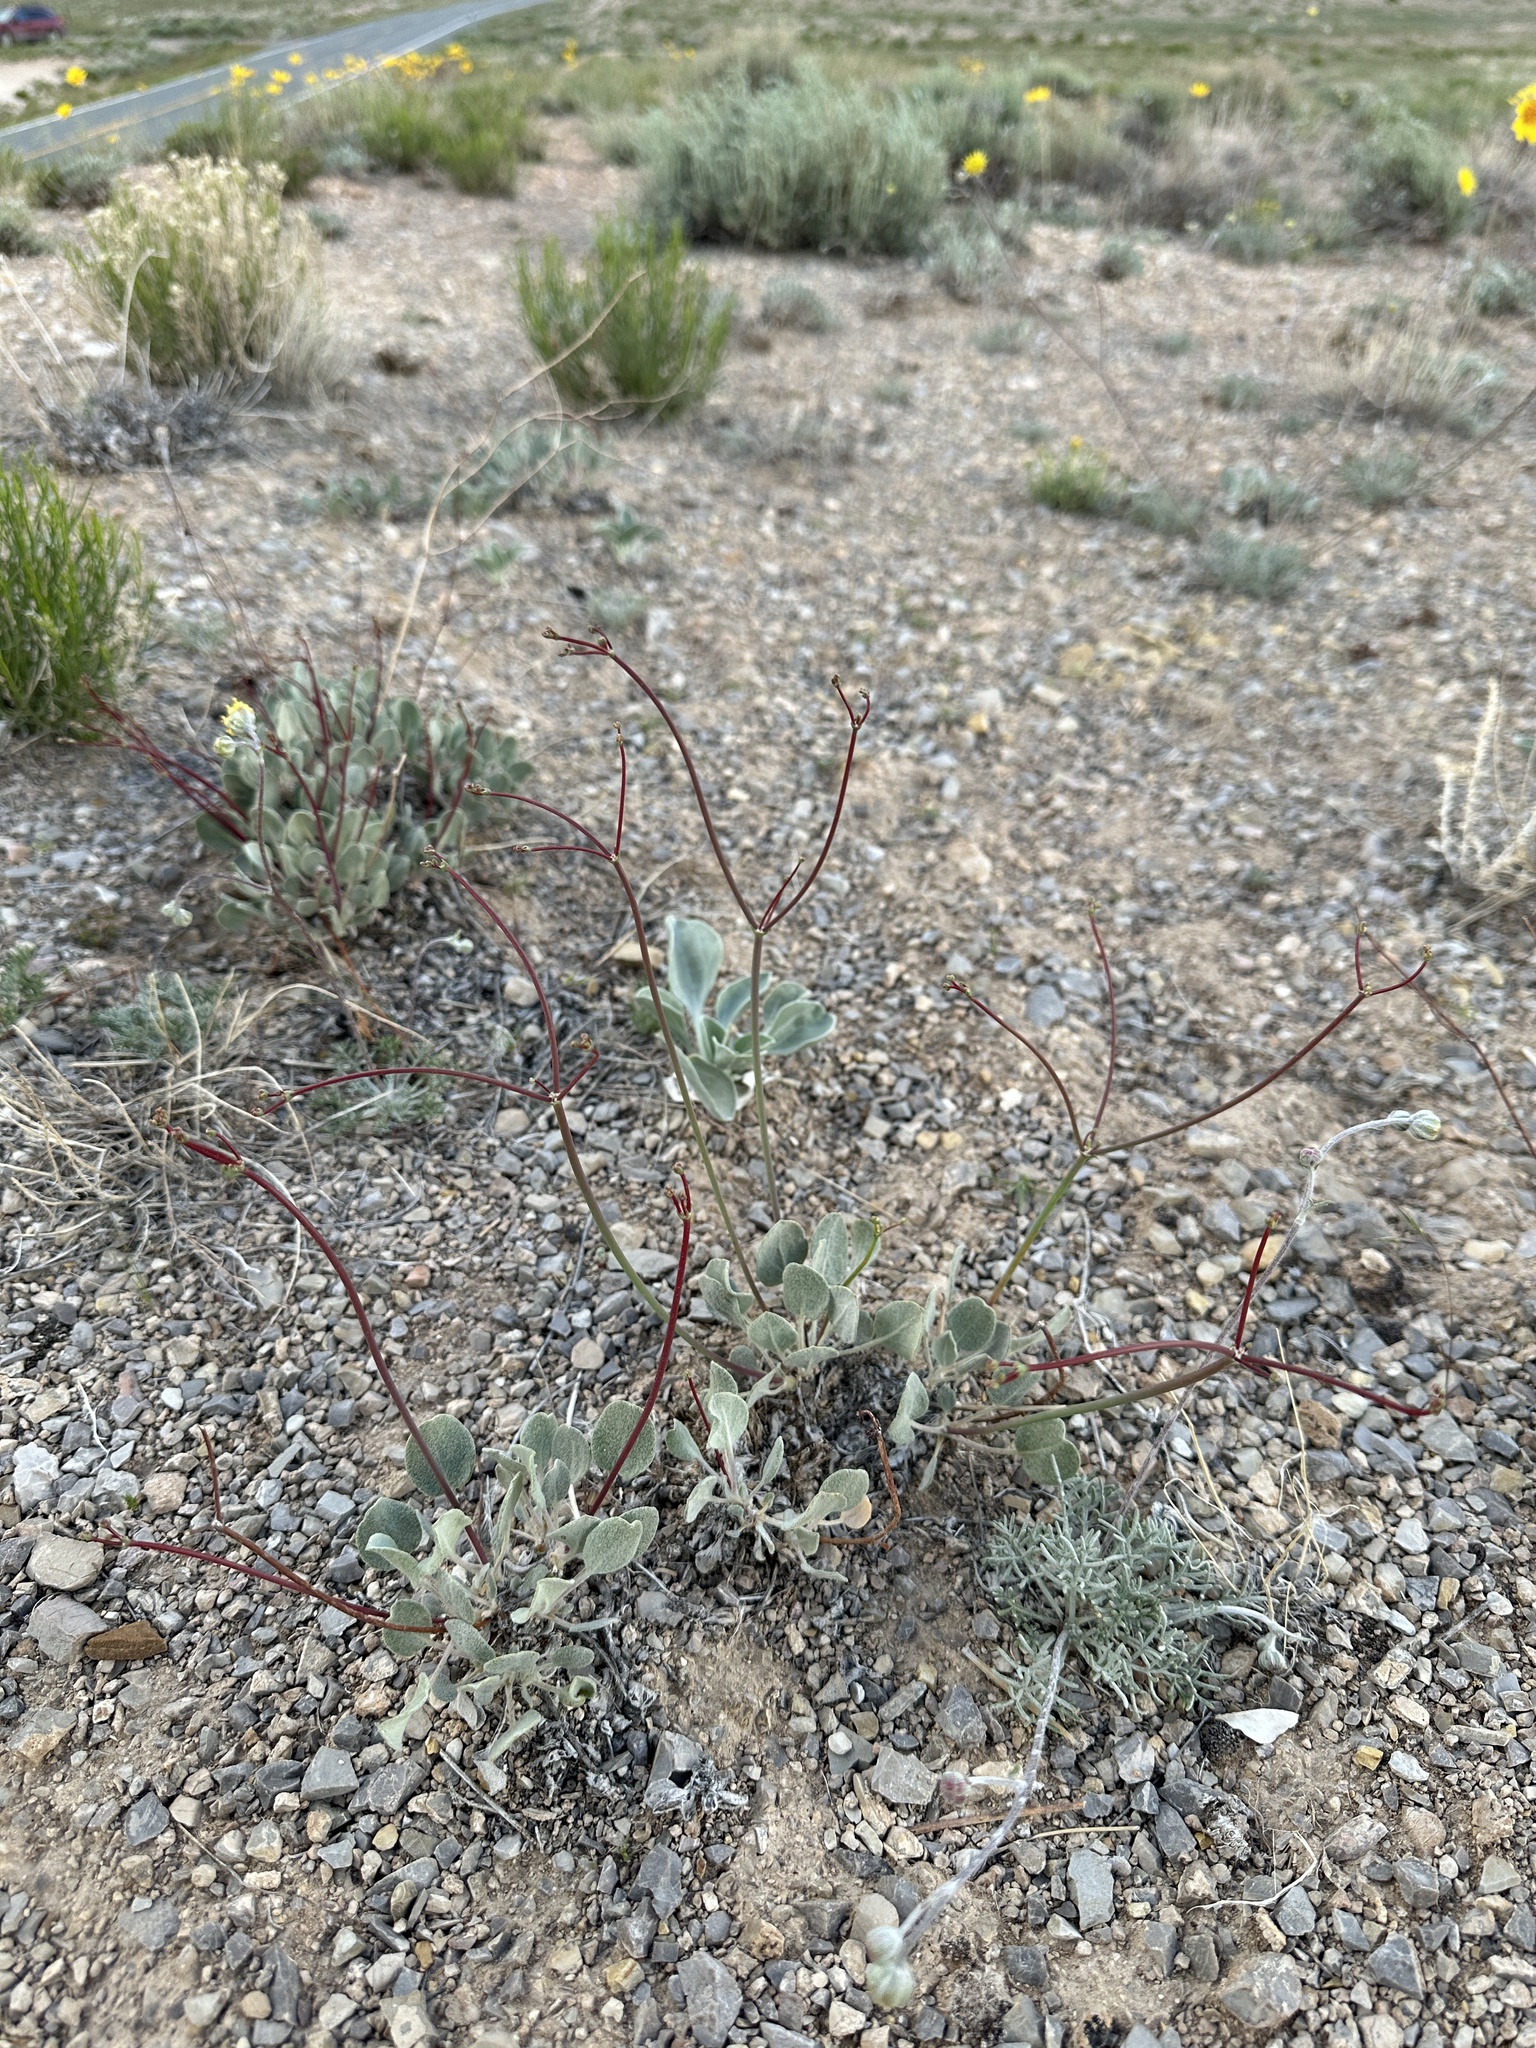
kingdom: Plantae
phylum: Tracheophyta
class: Magnoliopsida
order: Caryophyllales
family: Polygonaceae
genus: Eriogonum
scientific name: Eriogonum eremicum
